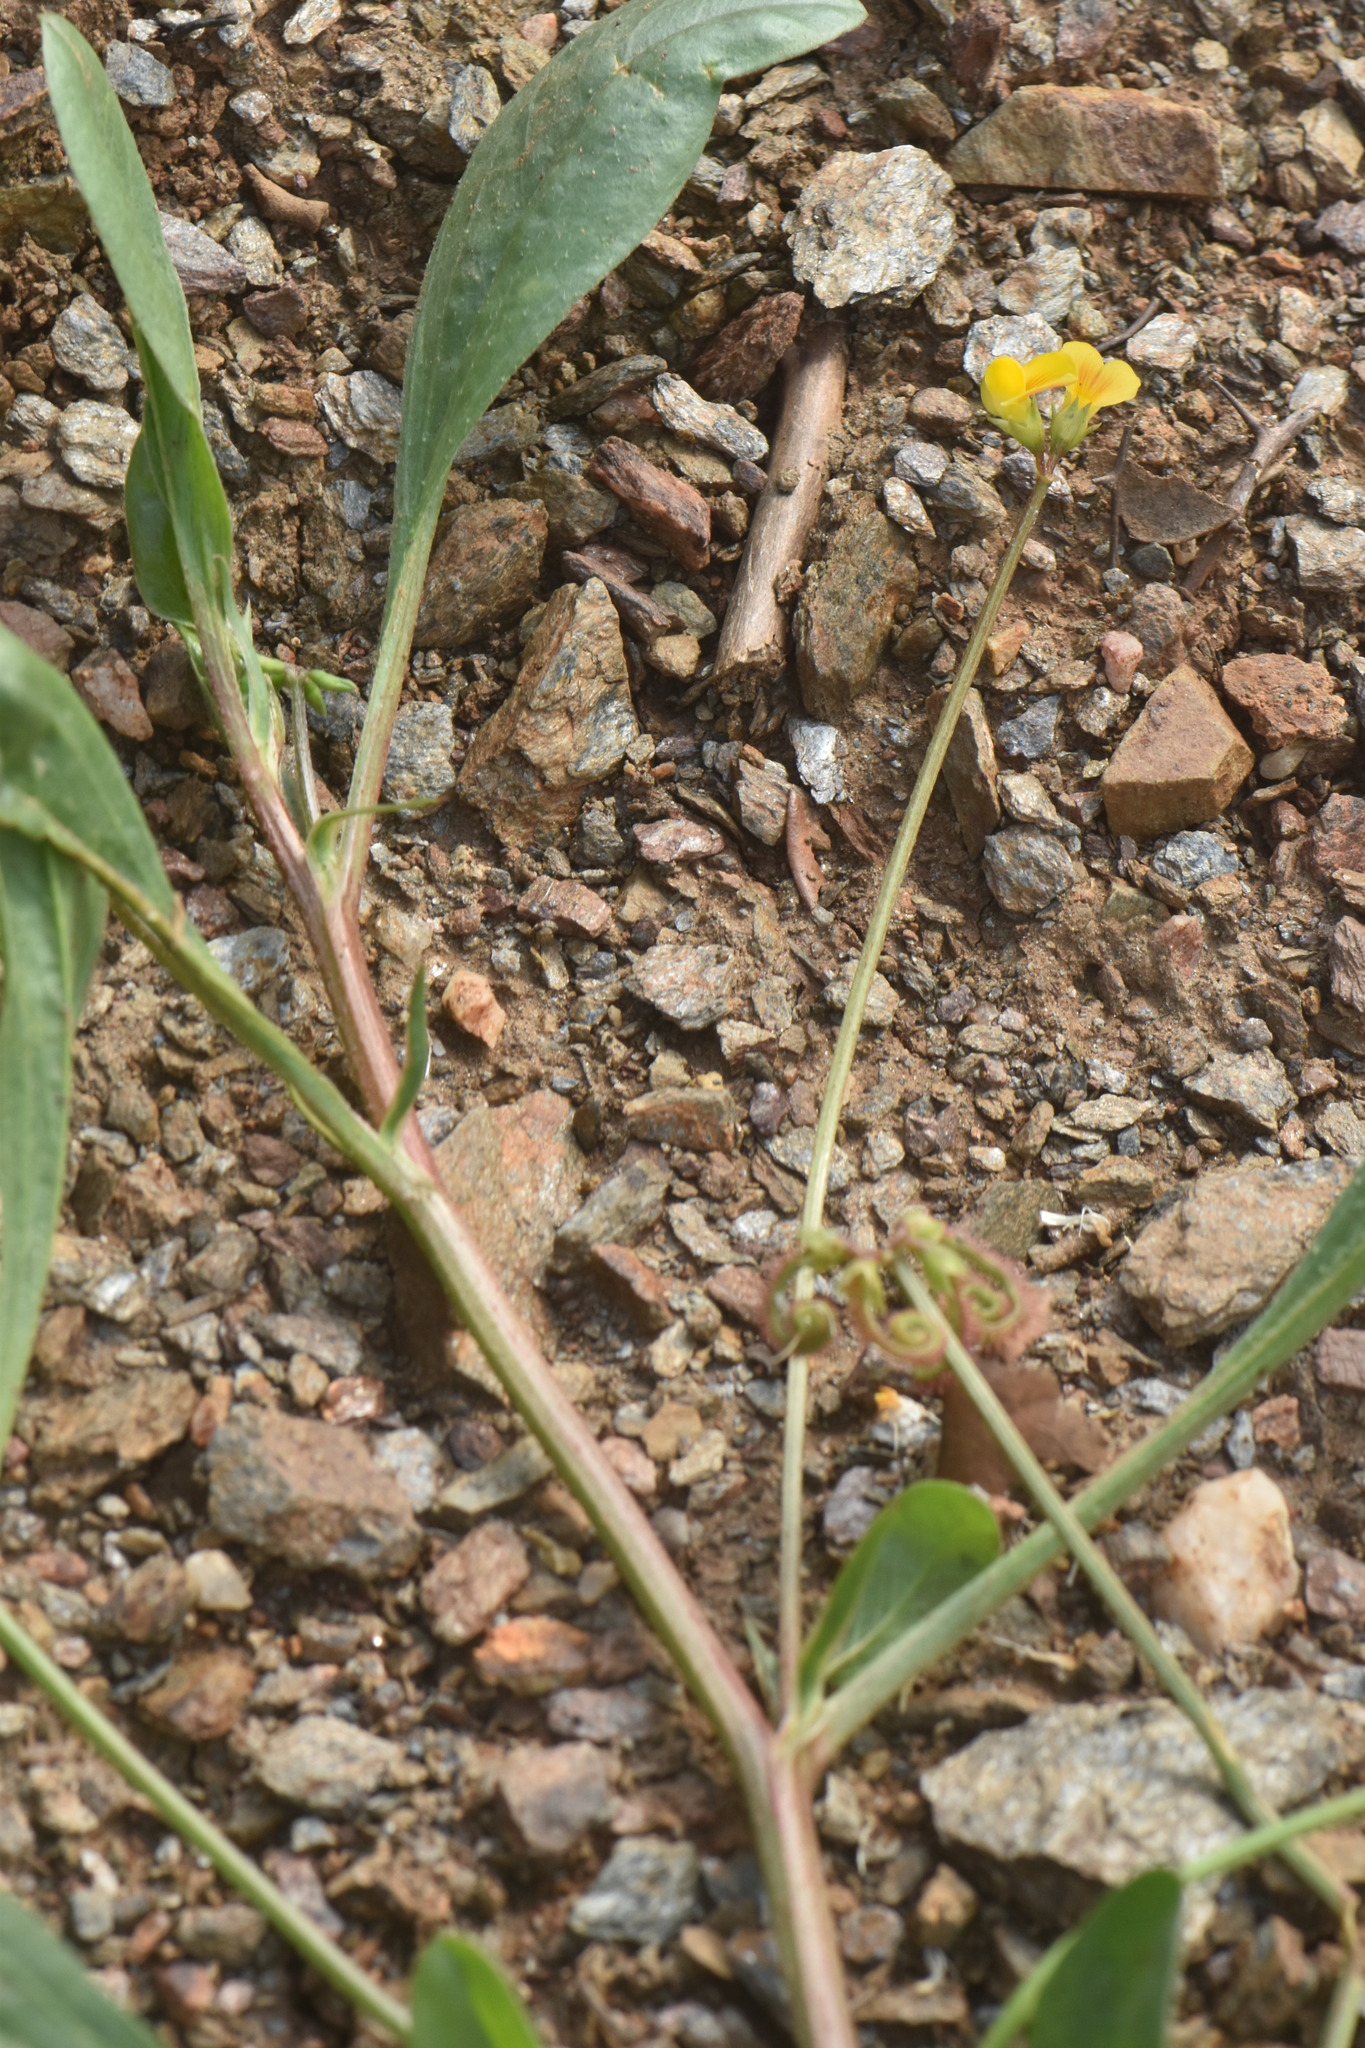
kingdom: Plantae
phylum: Tracheophyta
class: Magnoliopsida
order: Fabales
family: Fabaceae
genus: Scorpiurus
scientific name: Scorpiurus muricatus
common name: Caterpillar-plant
